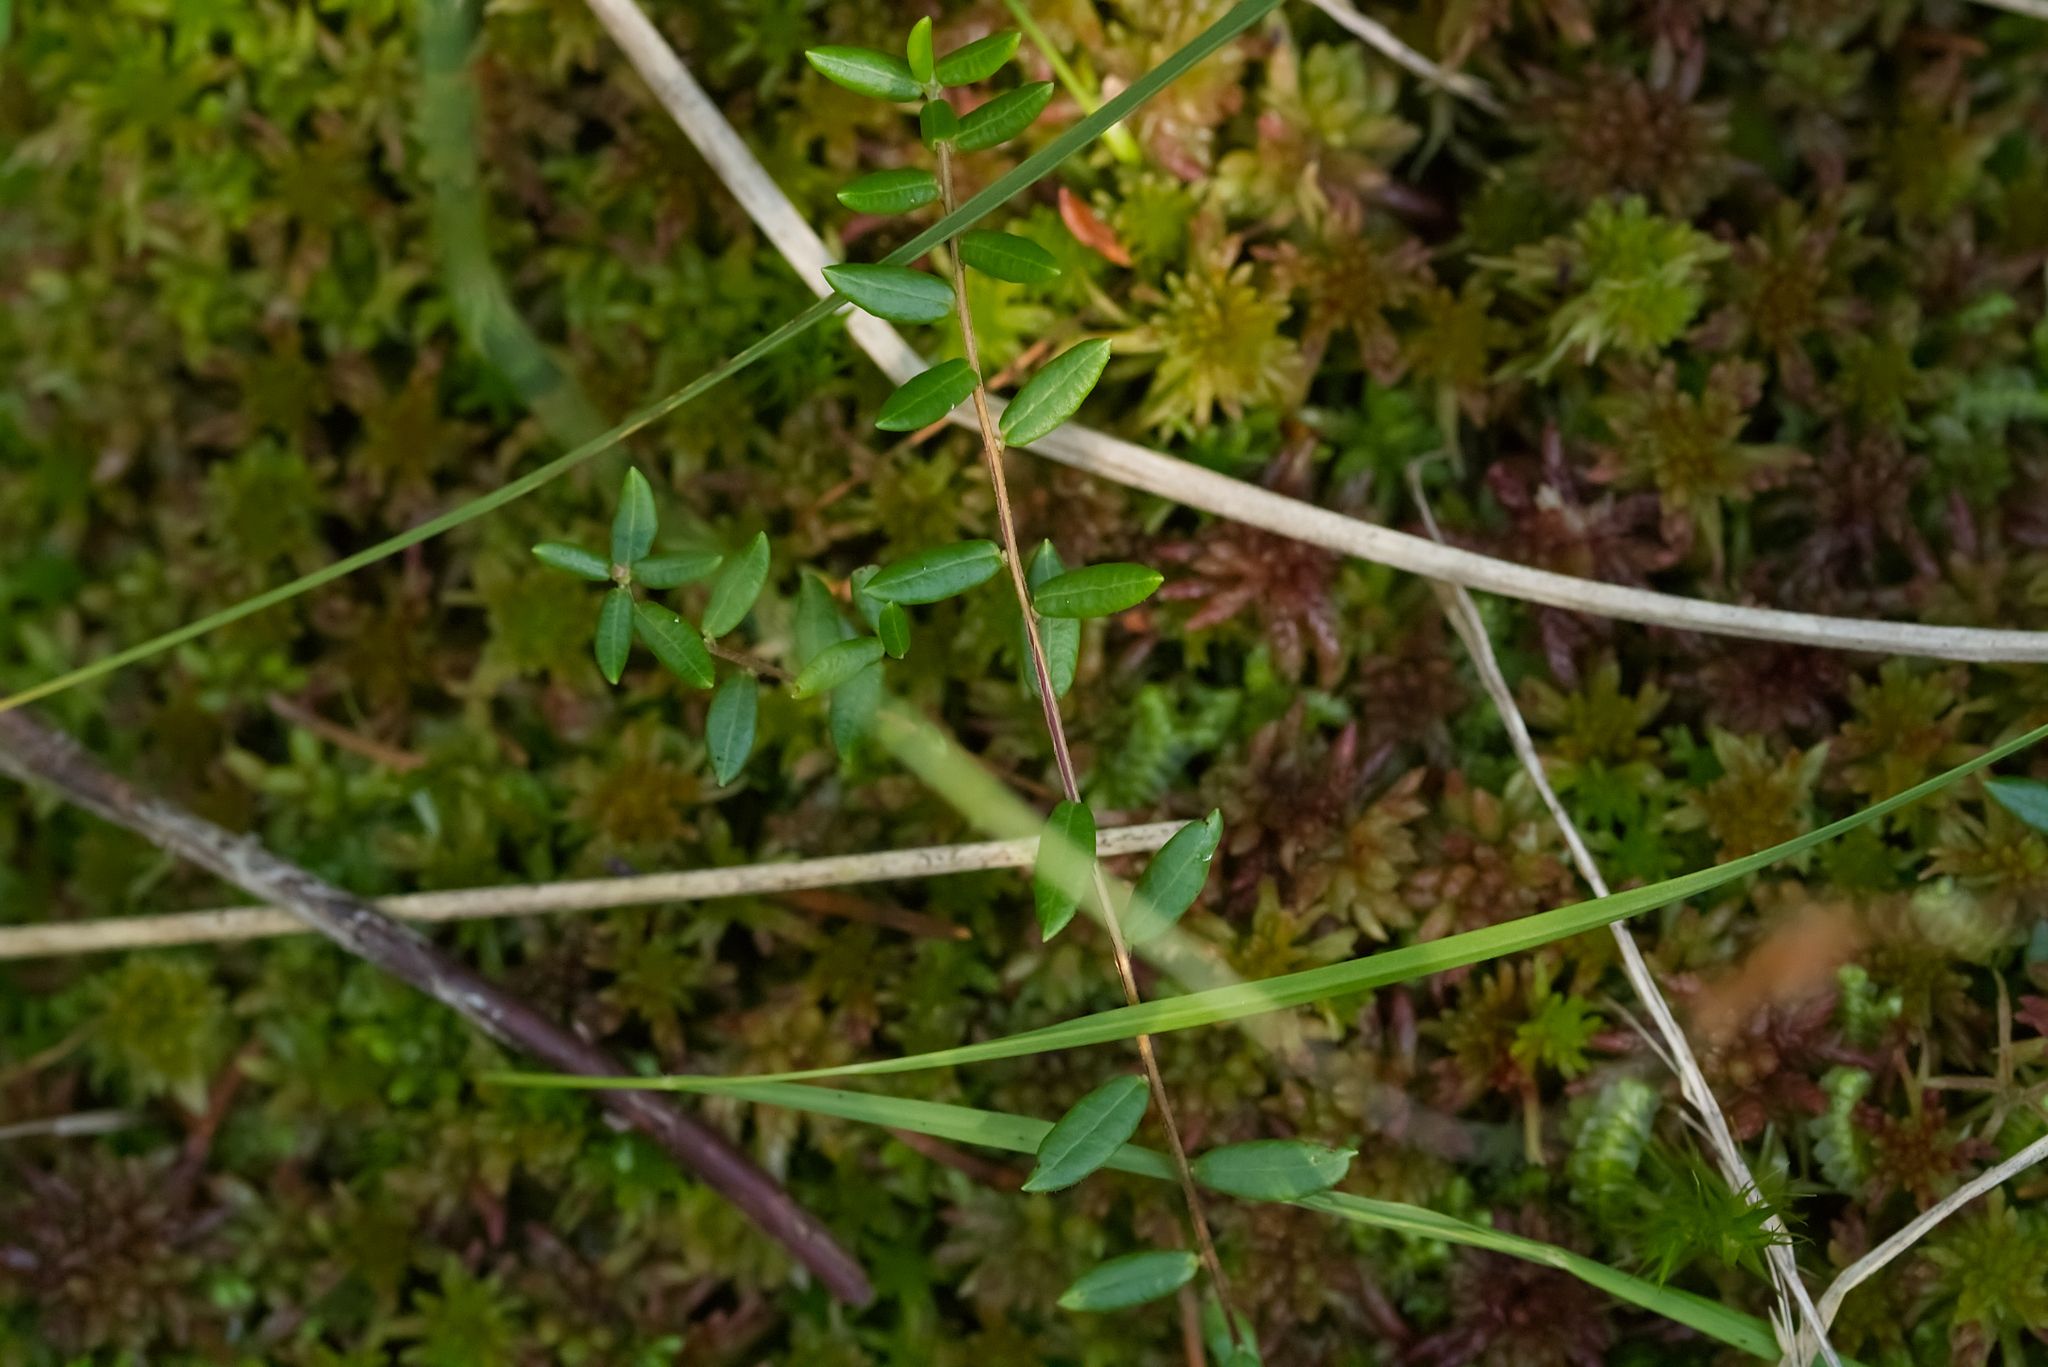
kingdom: Plantae
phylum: Tracheophyta
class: Magnoliopsida
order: Ericales
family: Ericaceae
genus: Vaccinium
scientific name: Vaccinium oxycoccos
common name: Cranberry
